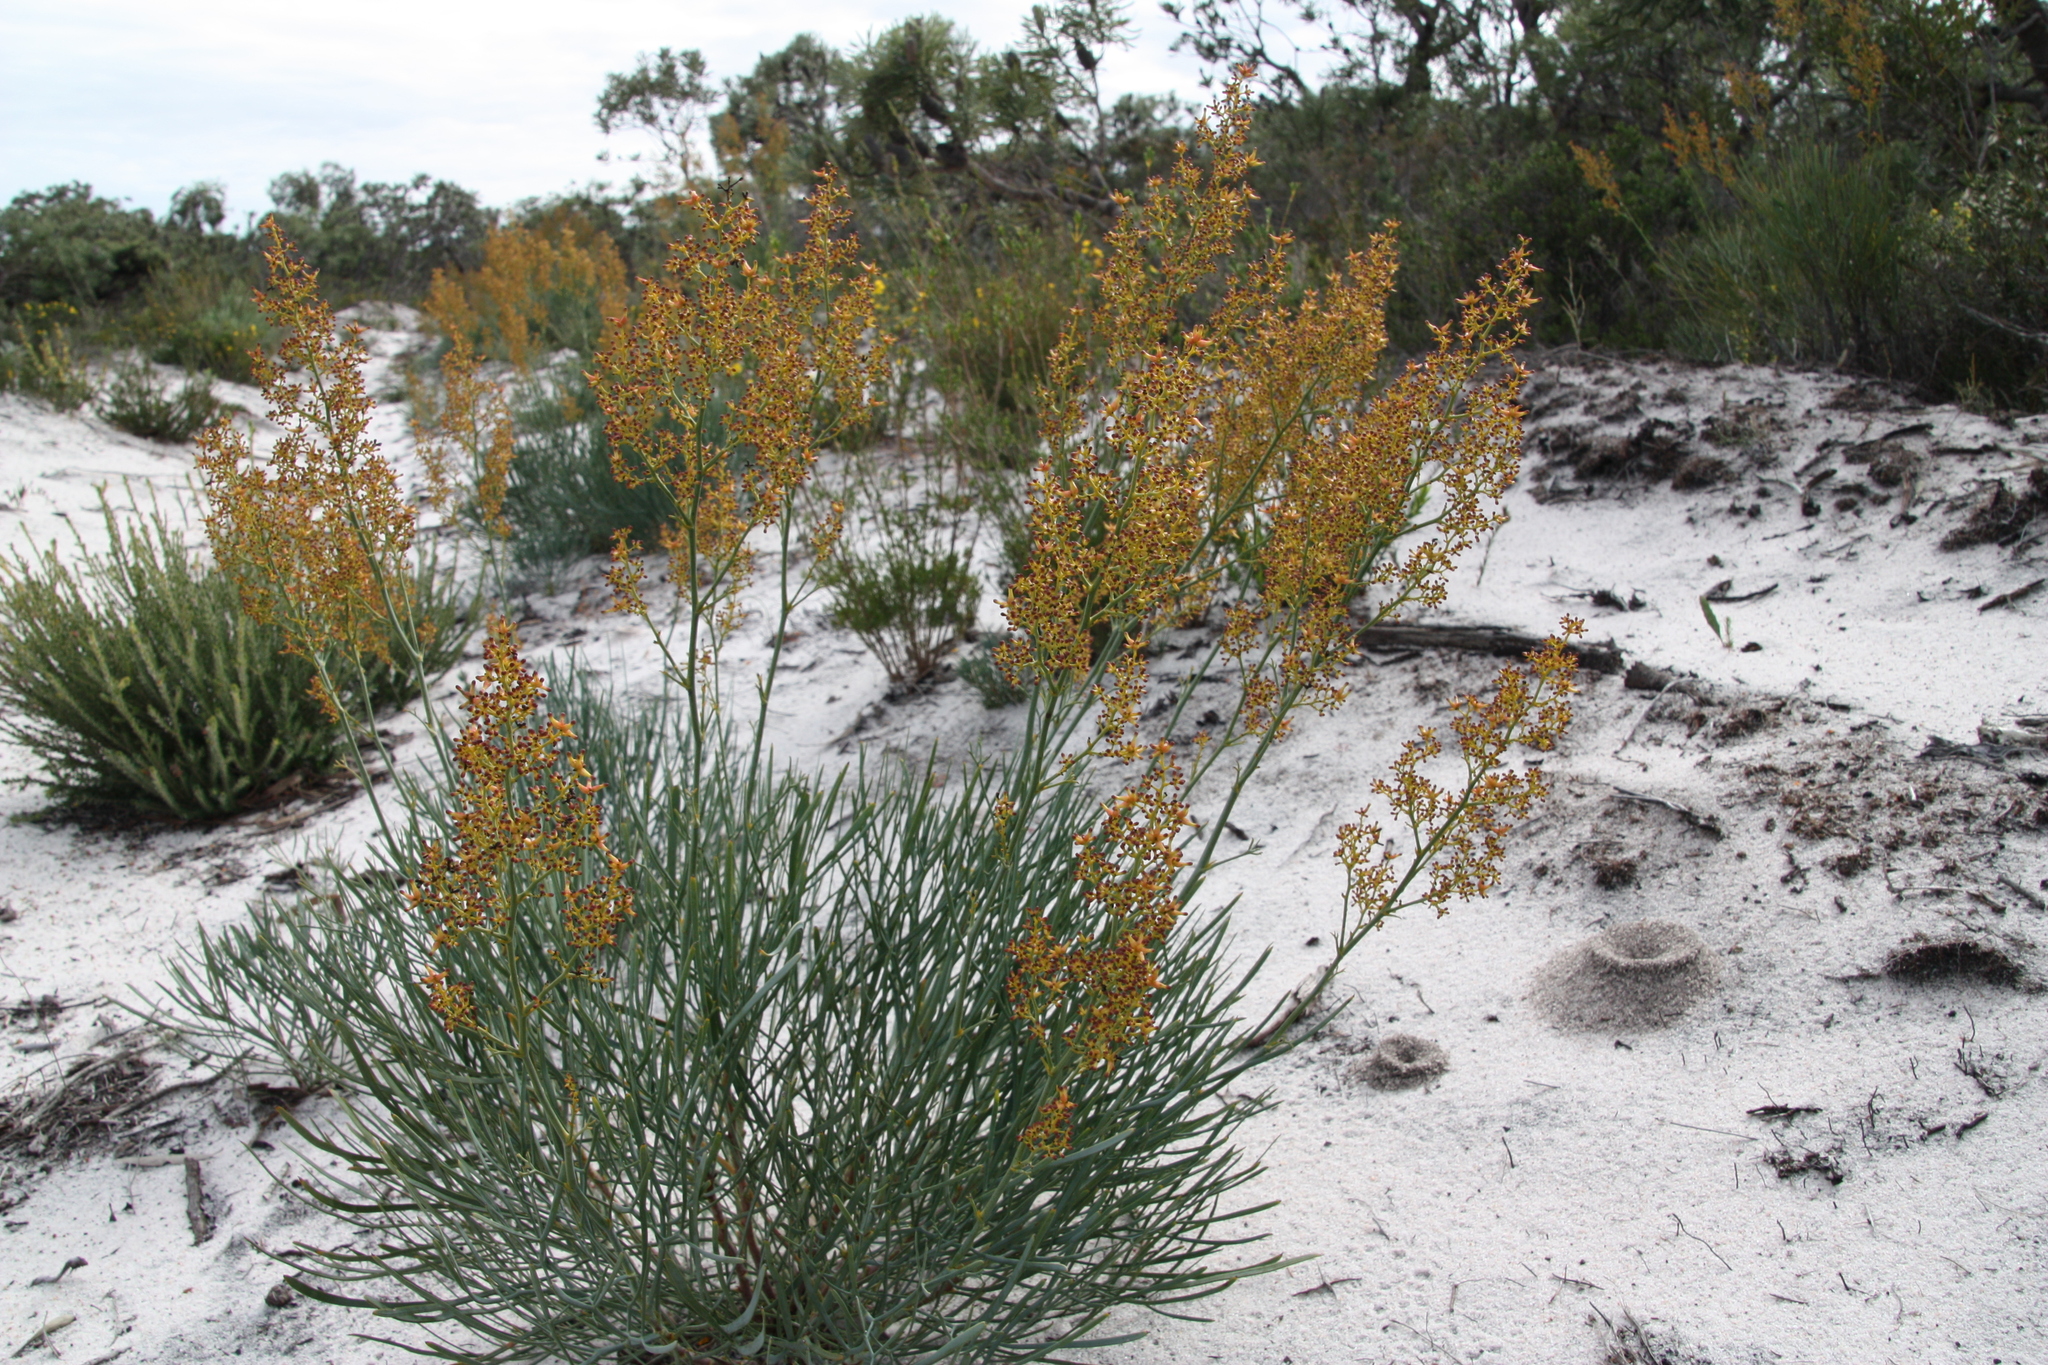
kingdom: Plantae
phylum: Tracheophyta
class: Magnoliopsida
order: Proteales
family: Proteaceae
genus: Stirlingia
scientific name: Stirlingia latifolia
